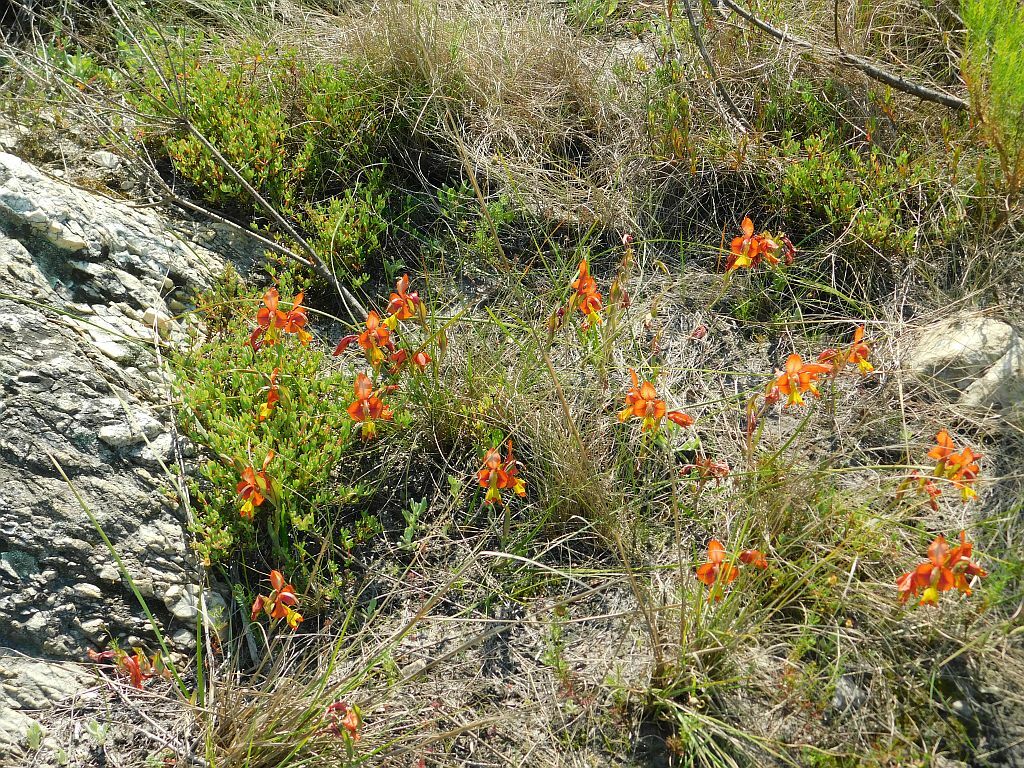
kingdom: Plantae
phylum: Tracheophyta
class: Liliopsida
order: Asparagales
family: Iridaceae
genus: Gladiolus
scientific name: Gladiolus alatus
